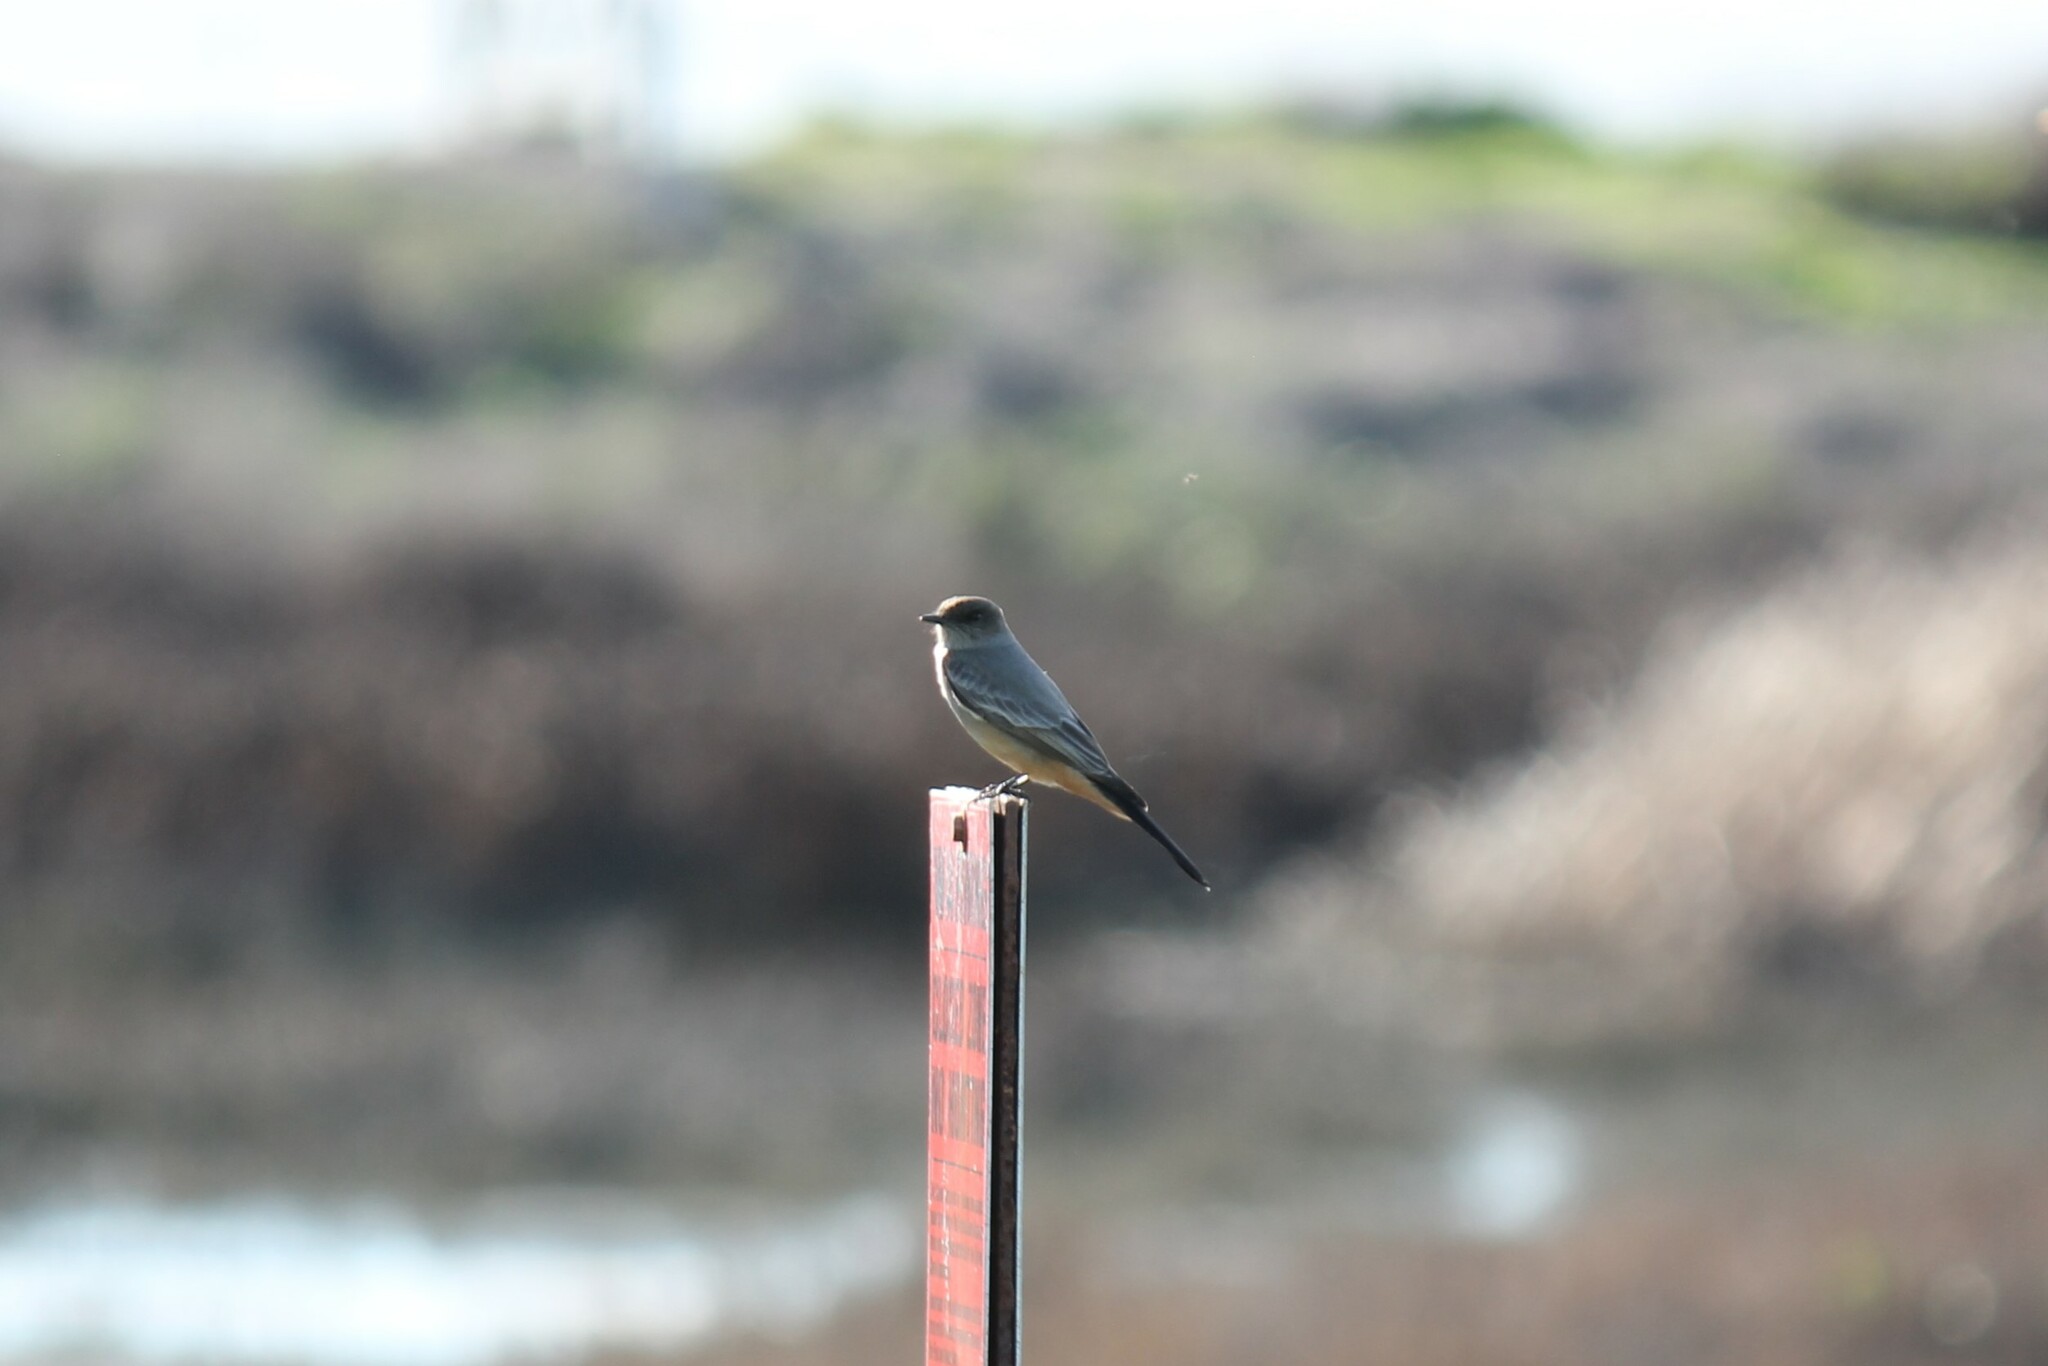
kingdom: Animalia
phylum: Chordata
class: Aves
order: Passeriformes
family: Tyrannidae
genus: Sayornis
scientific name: Sayornis saya
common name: Say's phoebe
